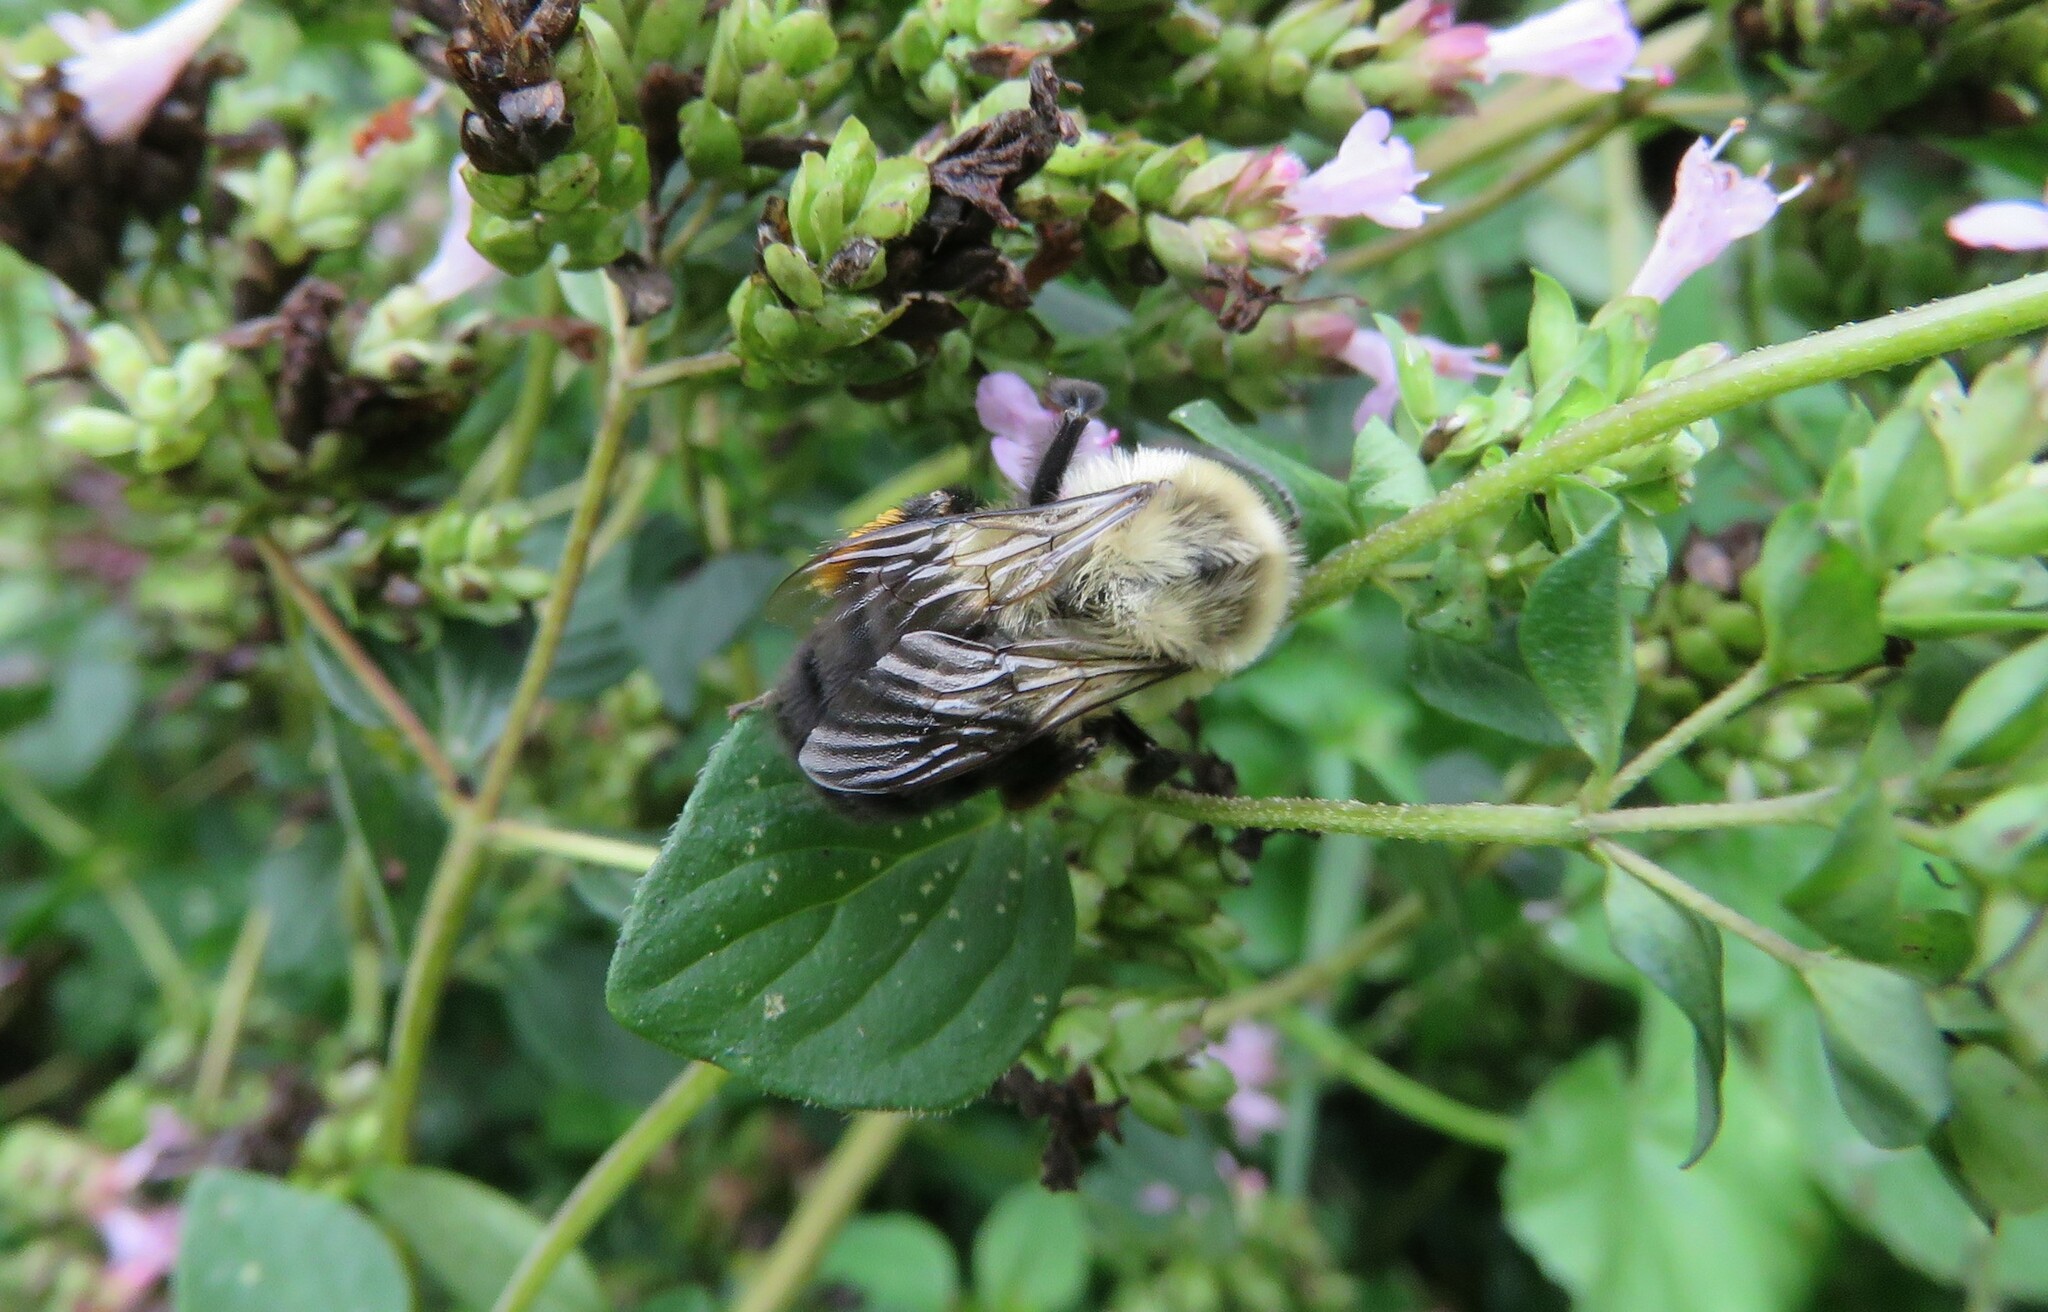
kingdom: Animalia
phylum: Arthropoda
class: Insecta
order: Hymenoptera
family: Apidae
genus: Bombus
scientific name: Bombus impatiens
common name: Common eastern bumble bee
